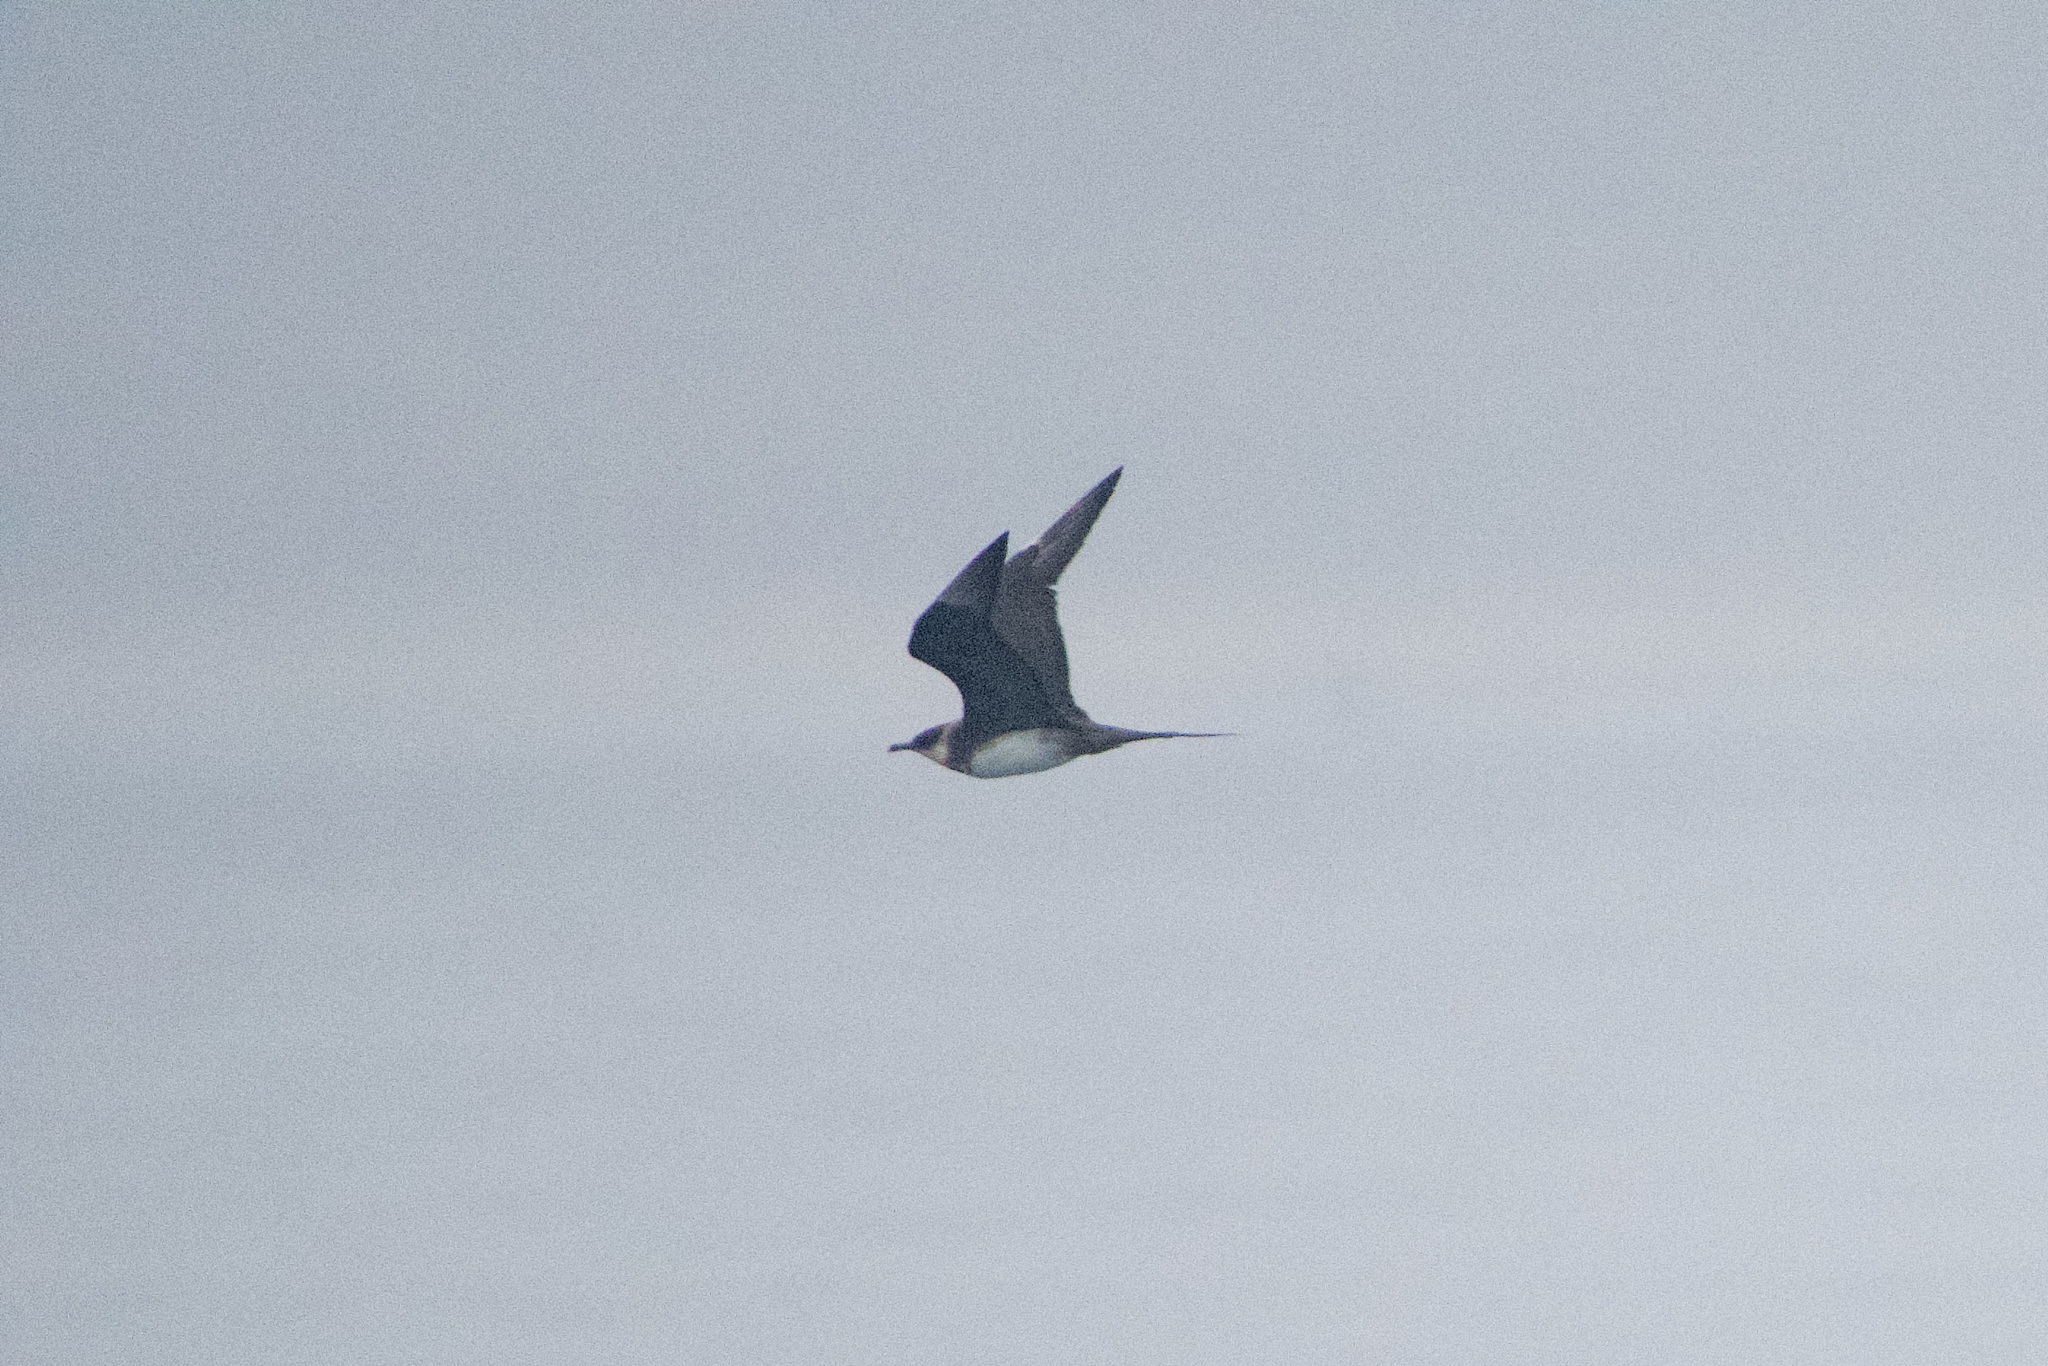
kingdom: Animalia
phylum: Chordata
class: Aves
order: Charadriiformes
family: Stercorariidae
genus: Stercorarius
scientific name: Stercorarius parasiticus
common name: Parasitic jaeger
